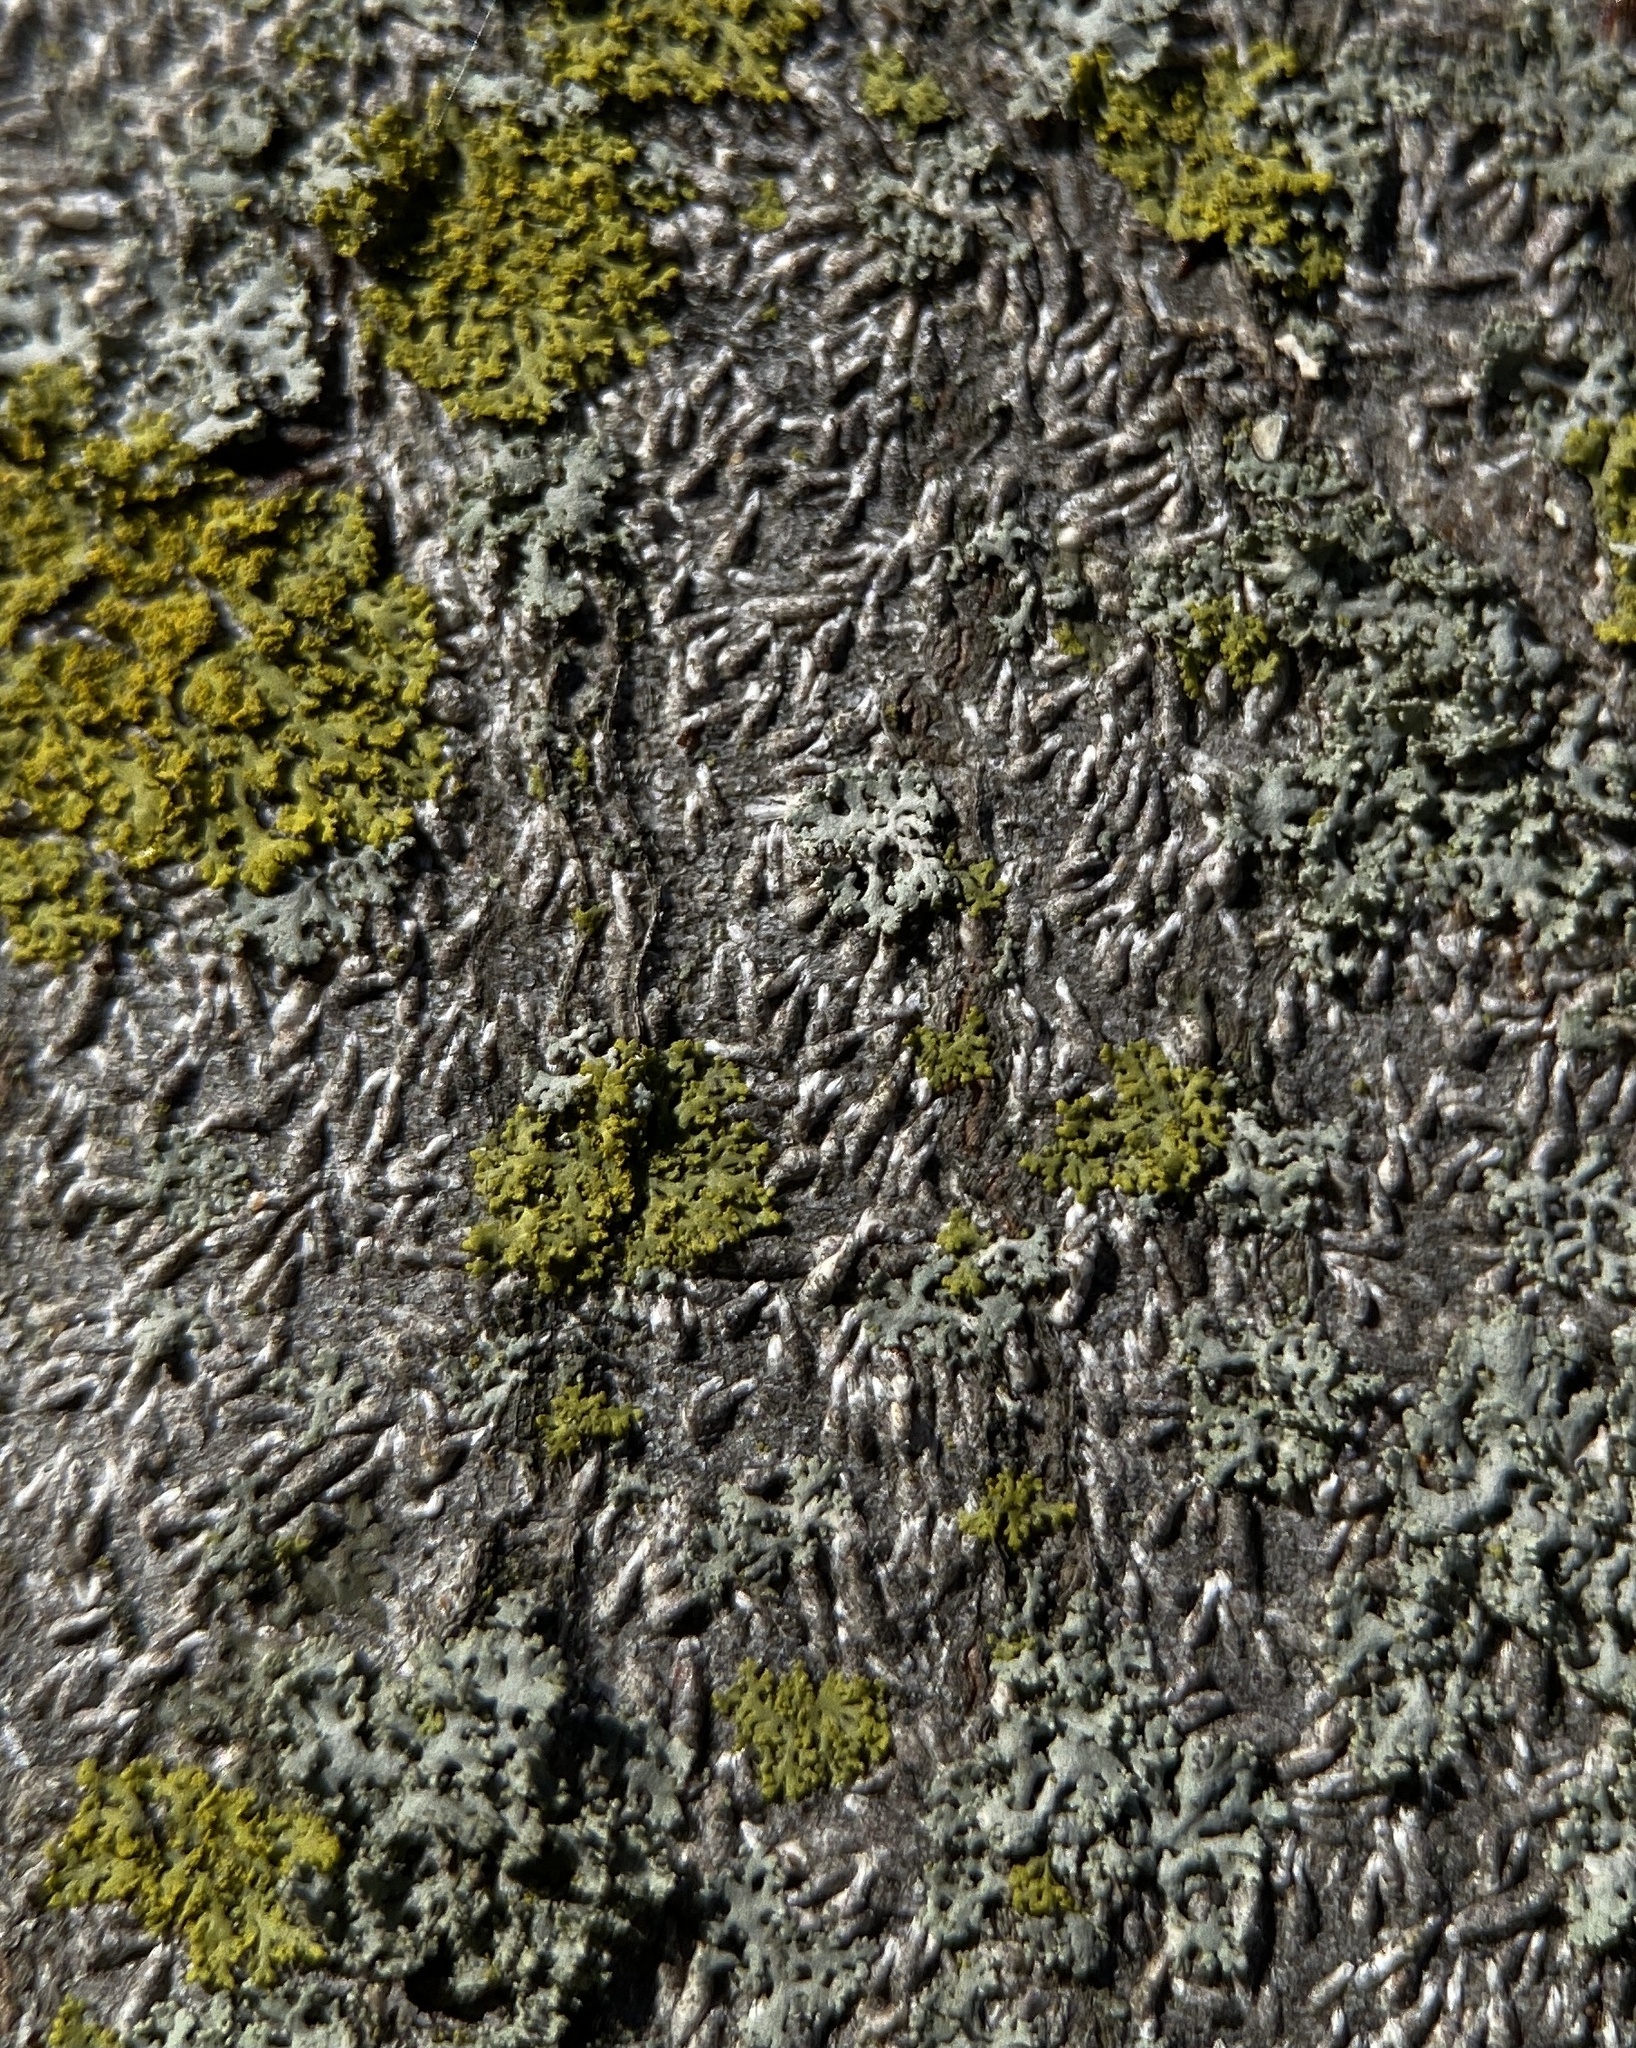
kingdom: Animalia
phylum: Arthropoda
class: Insecta
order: Hemiptera
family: Diaspididae
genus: Lopholeucaspis
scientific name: Lopholeucaspis japonica
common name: Japanese maple scale
